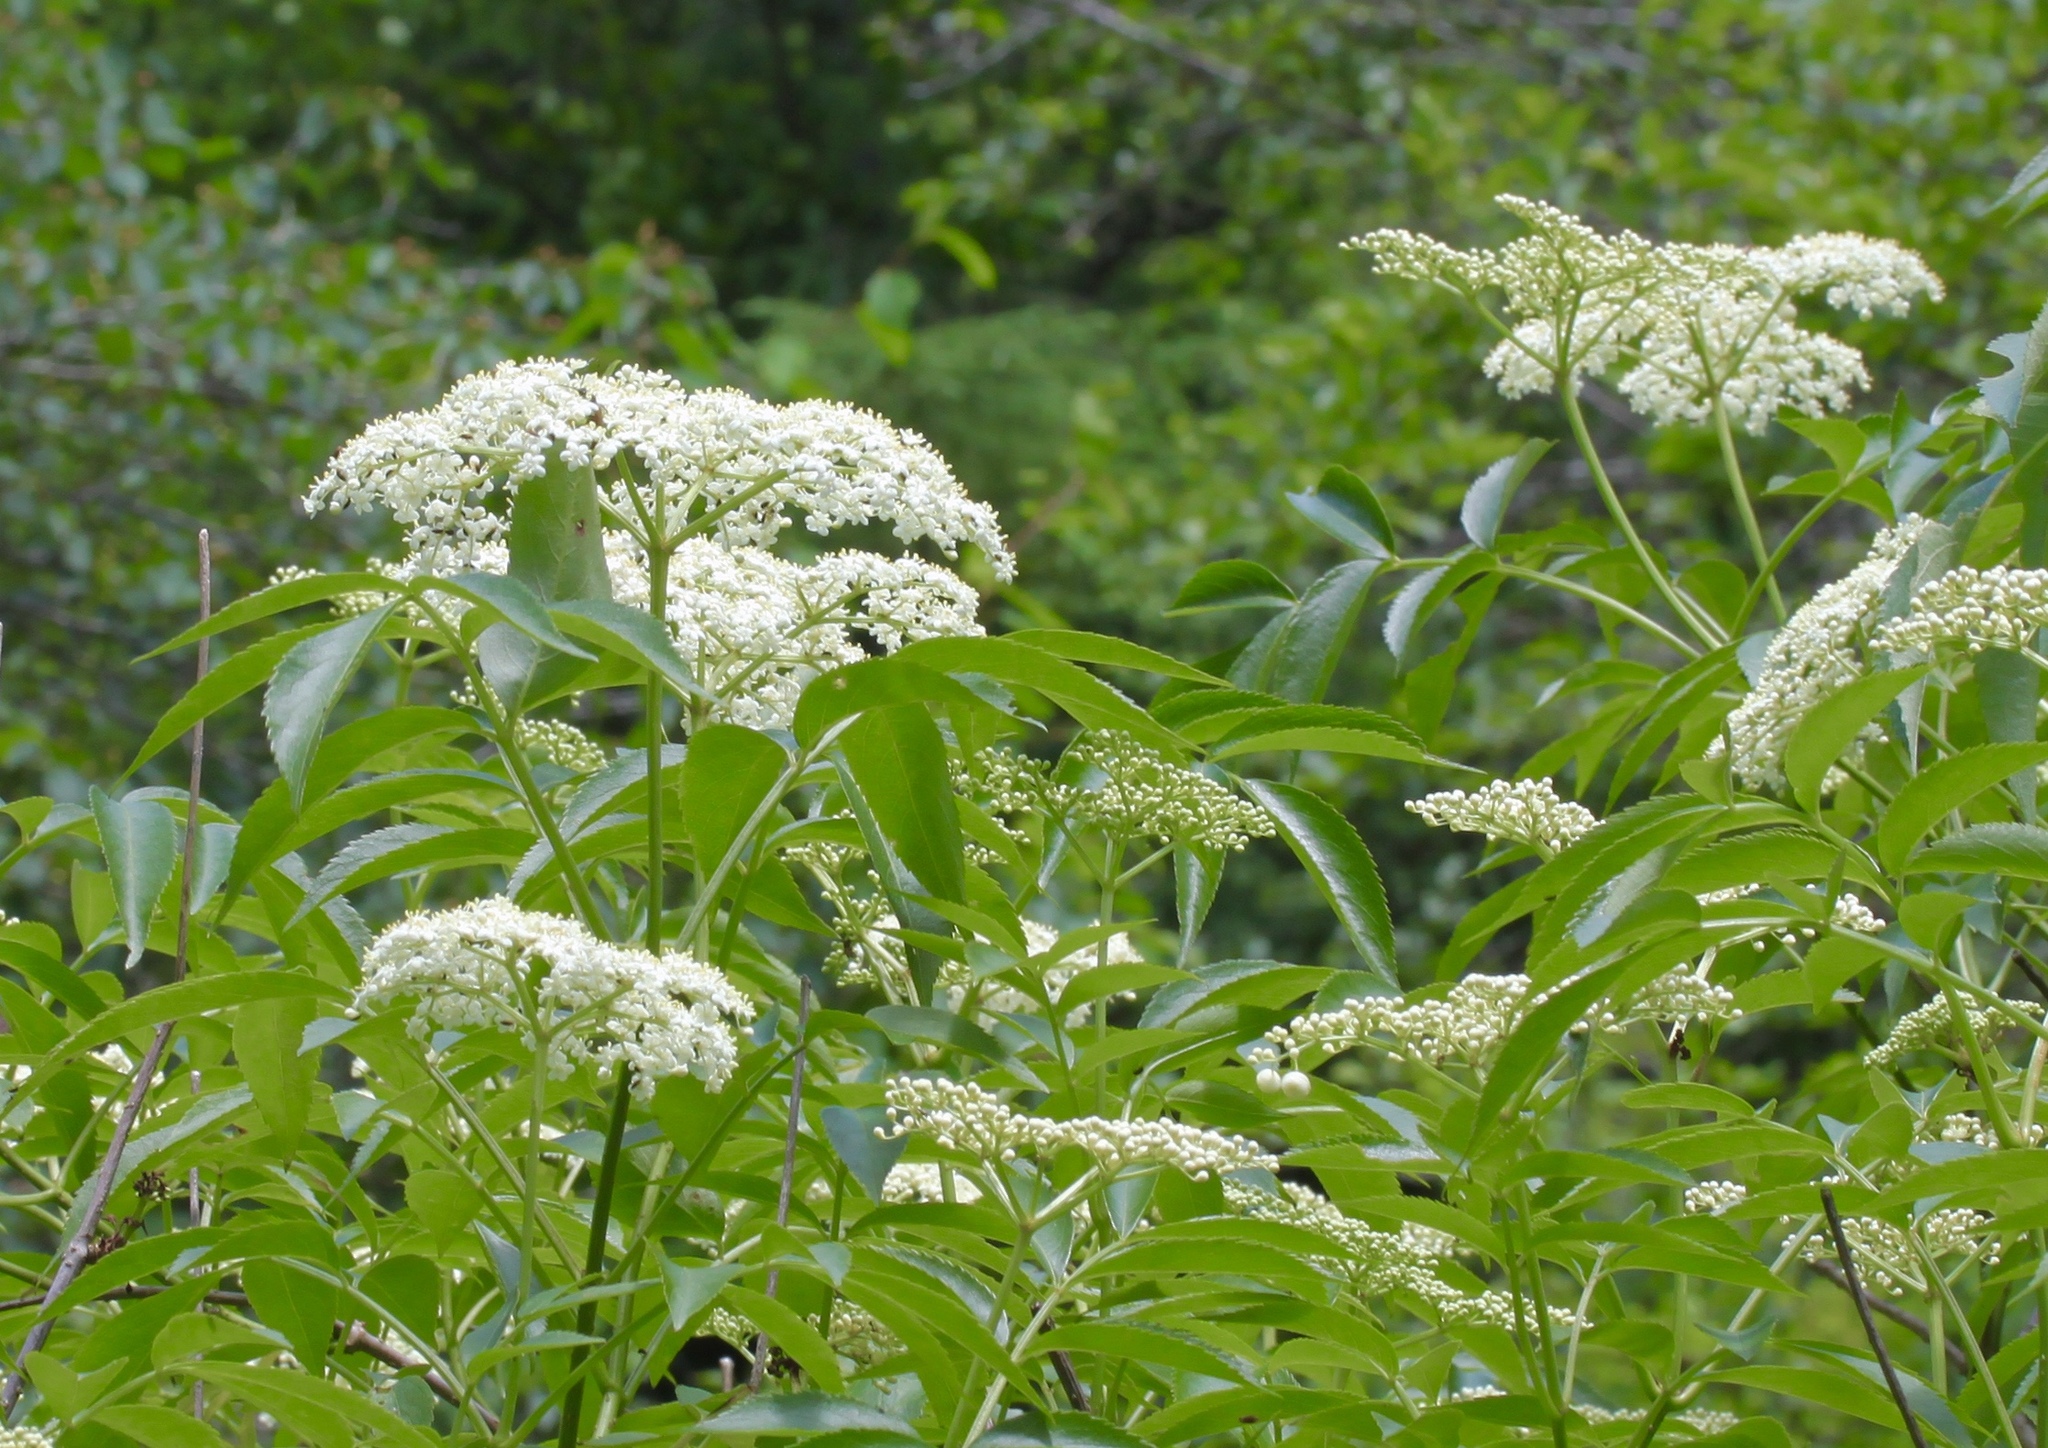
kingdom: Plantae
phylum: Tracheophyta
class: Magnoliopsida
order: Dipsacales
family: Viburnaceae
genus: Sambucus
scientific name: Sambucus canadensis
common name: American elder
